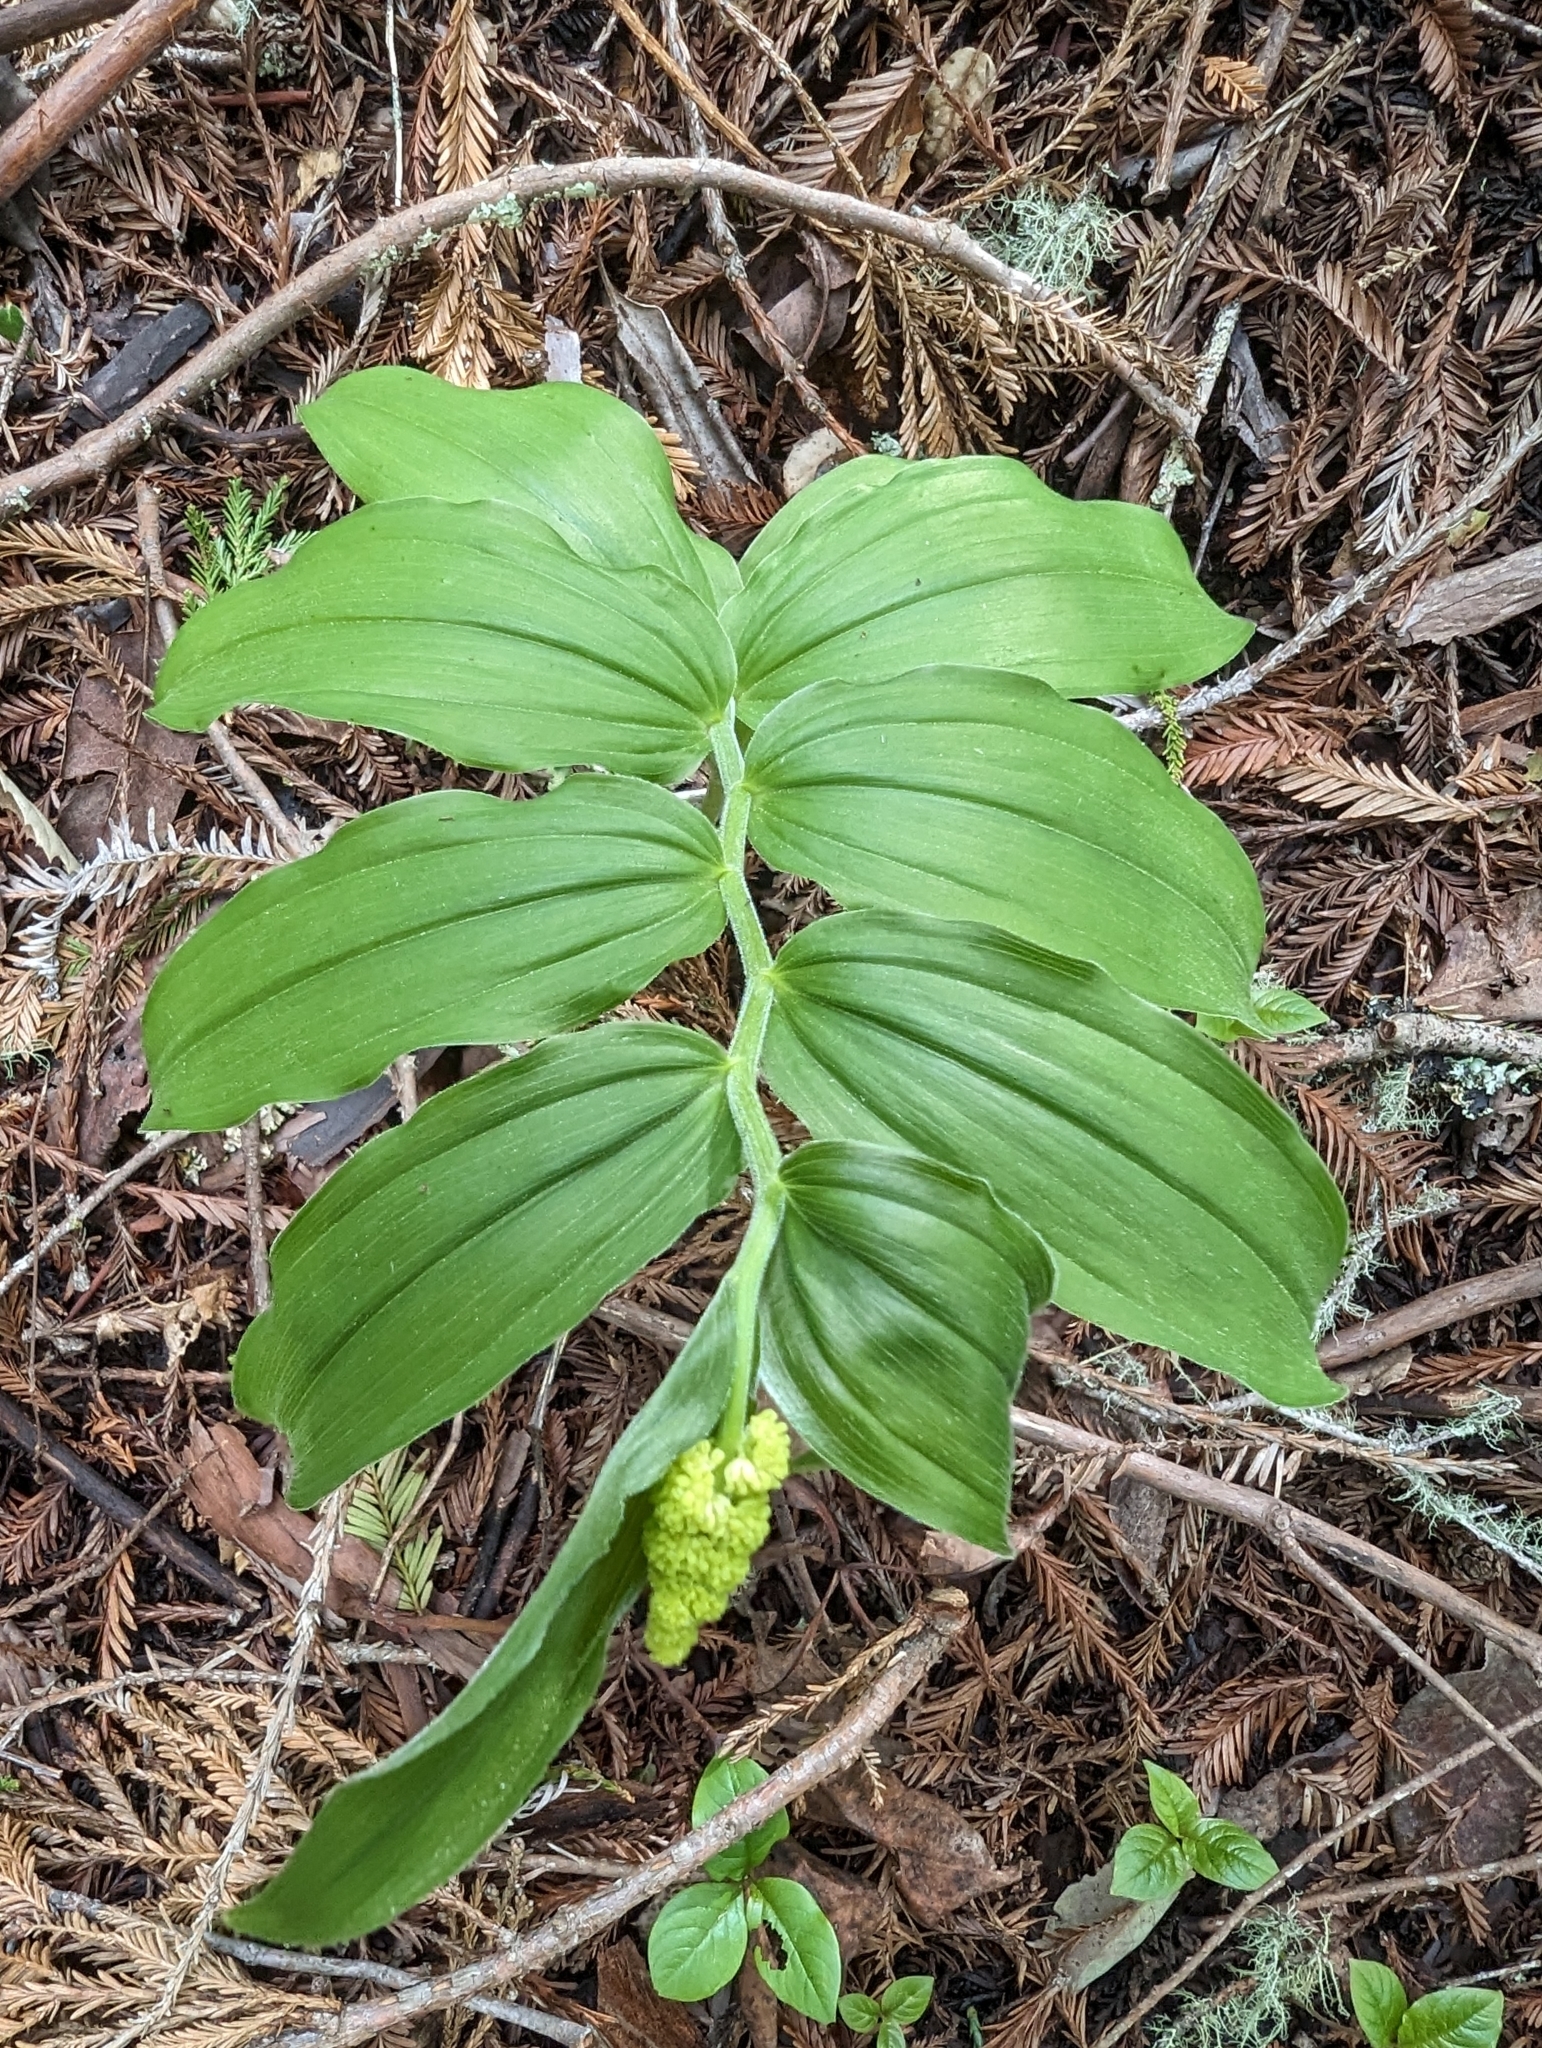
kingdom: Plantae
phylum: Tracheophyta
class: Liliopsida
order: Asparagales
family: Asparagaceae
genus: Maianthemum
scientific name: Maianthemum racemosum
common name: False spikenard
